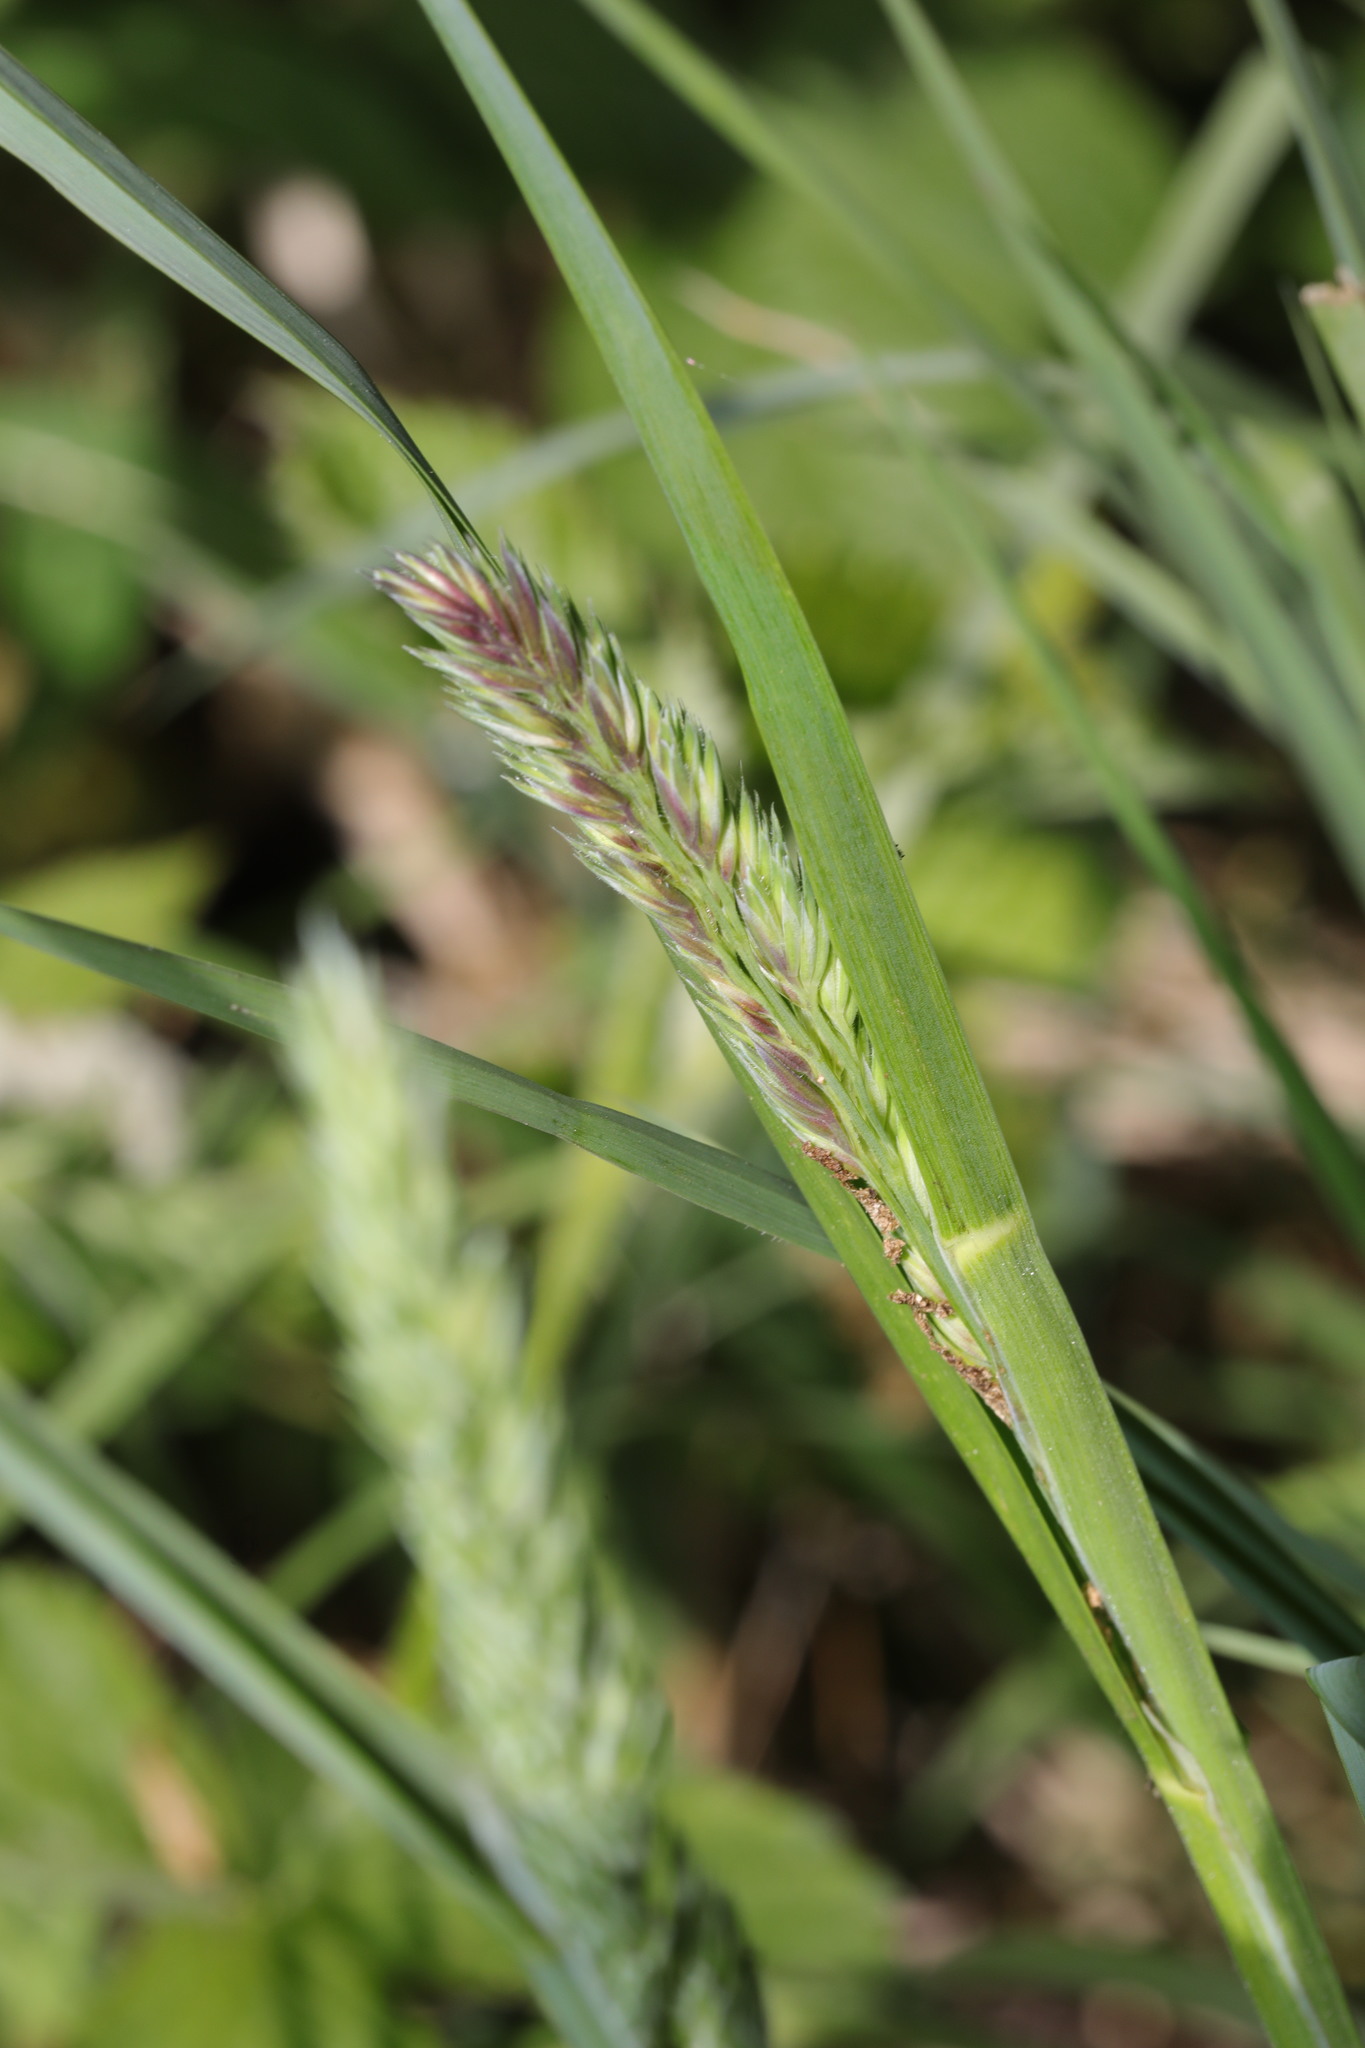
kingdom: Plantae
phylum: Tracheophyta
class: Liliopsida
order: Poales
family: Poaceae
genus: Holcus
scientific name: Holcus lanatus
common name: Yorkshire-fog
